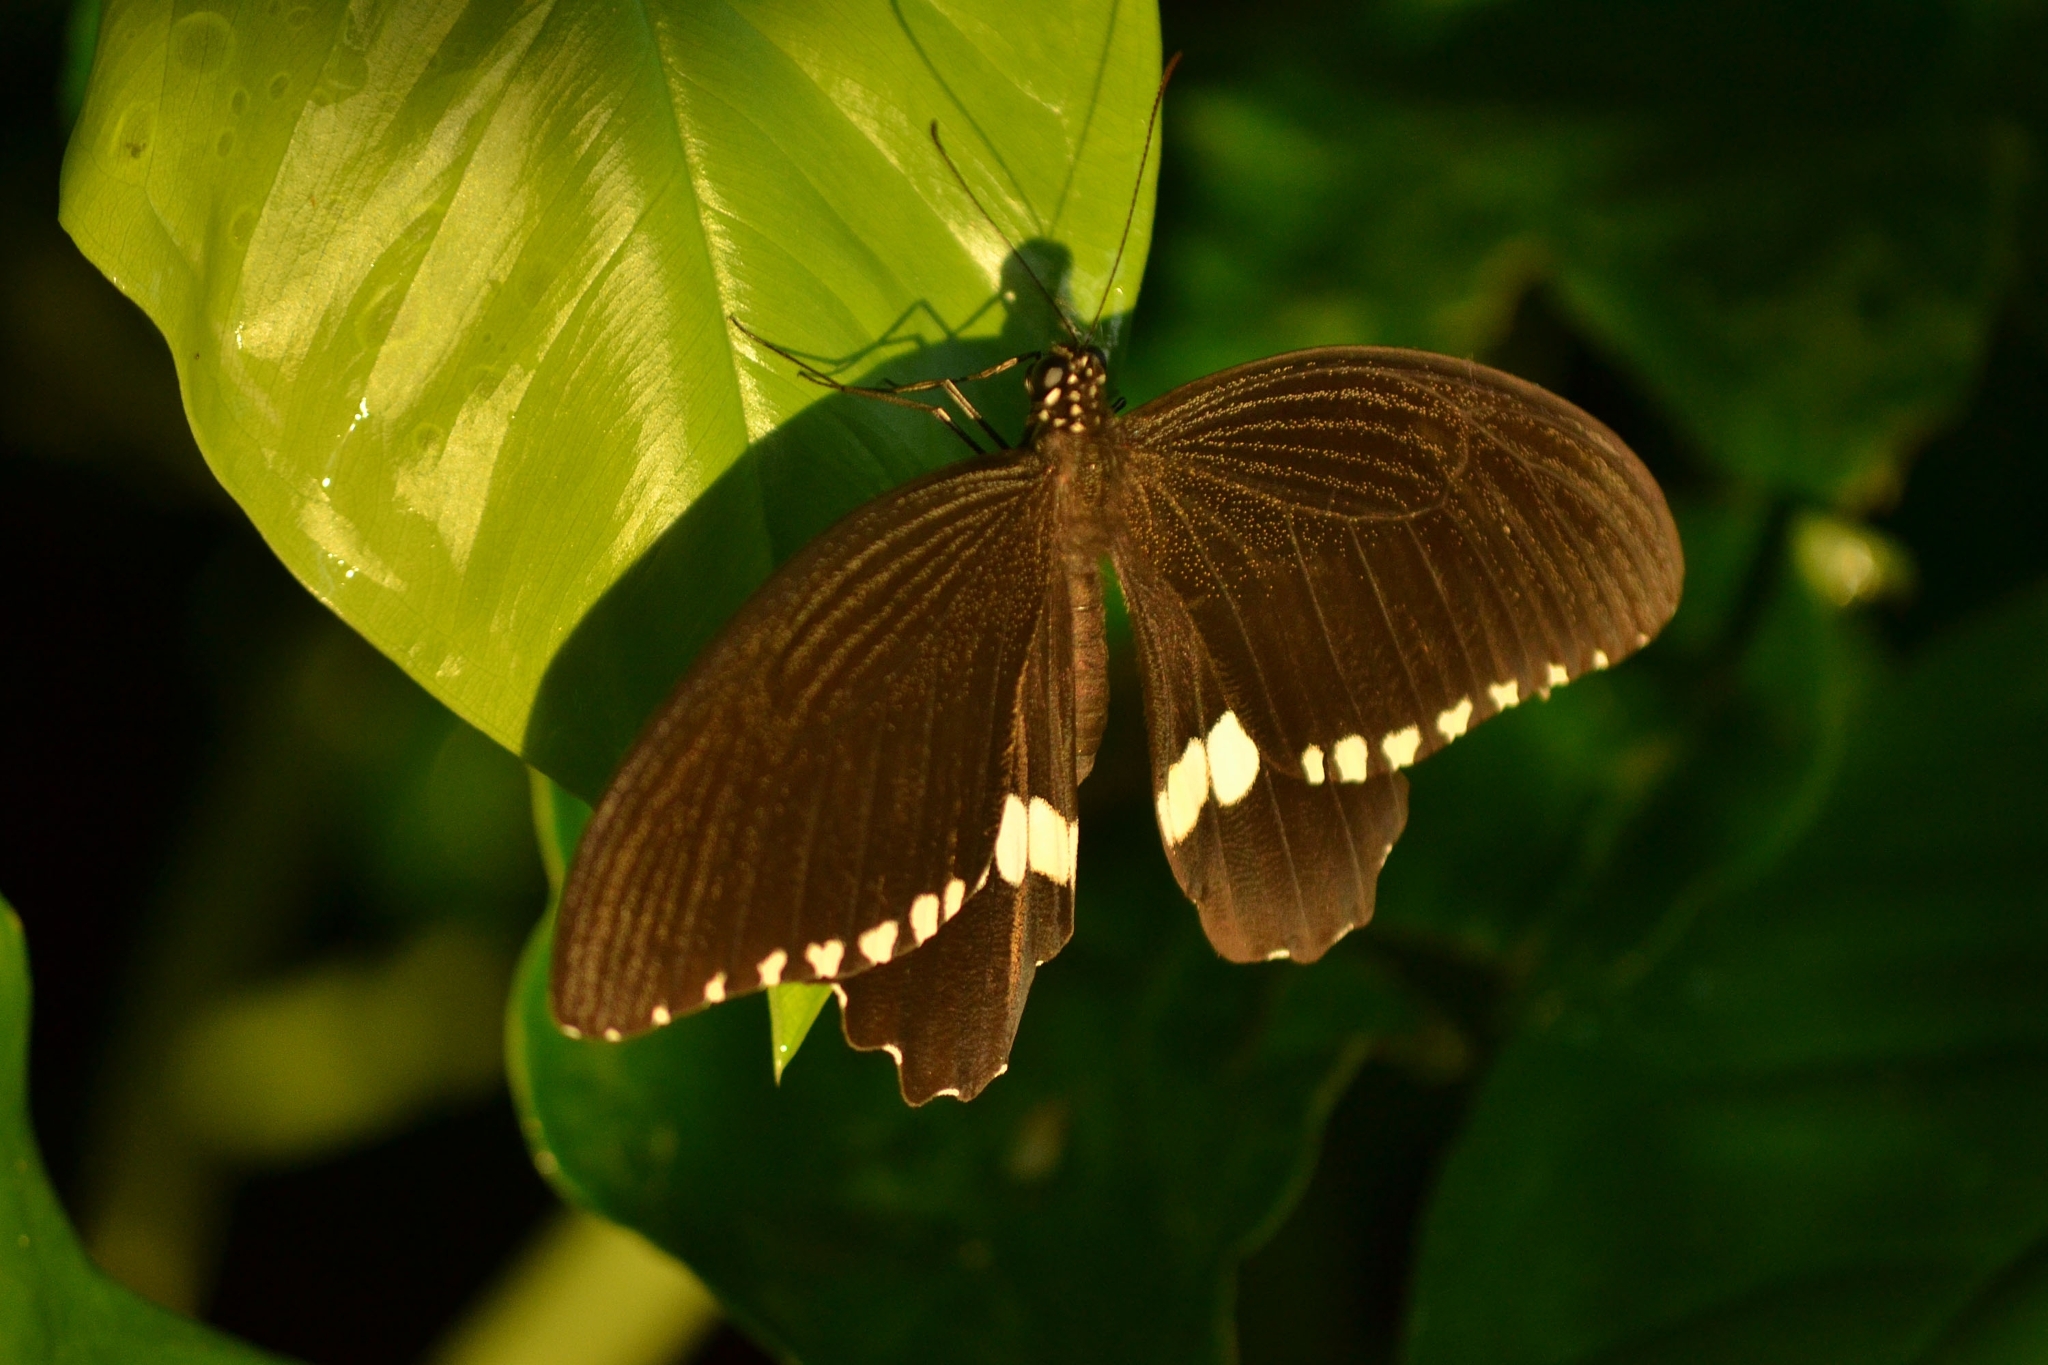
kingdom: Animalia
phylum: Arthropoda
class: Insecta
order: Lepidoptera
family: Papilionidae
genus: Papilio
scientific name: Papilio polytes
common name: Common mormon
